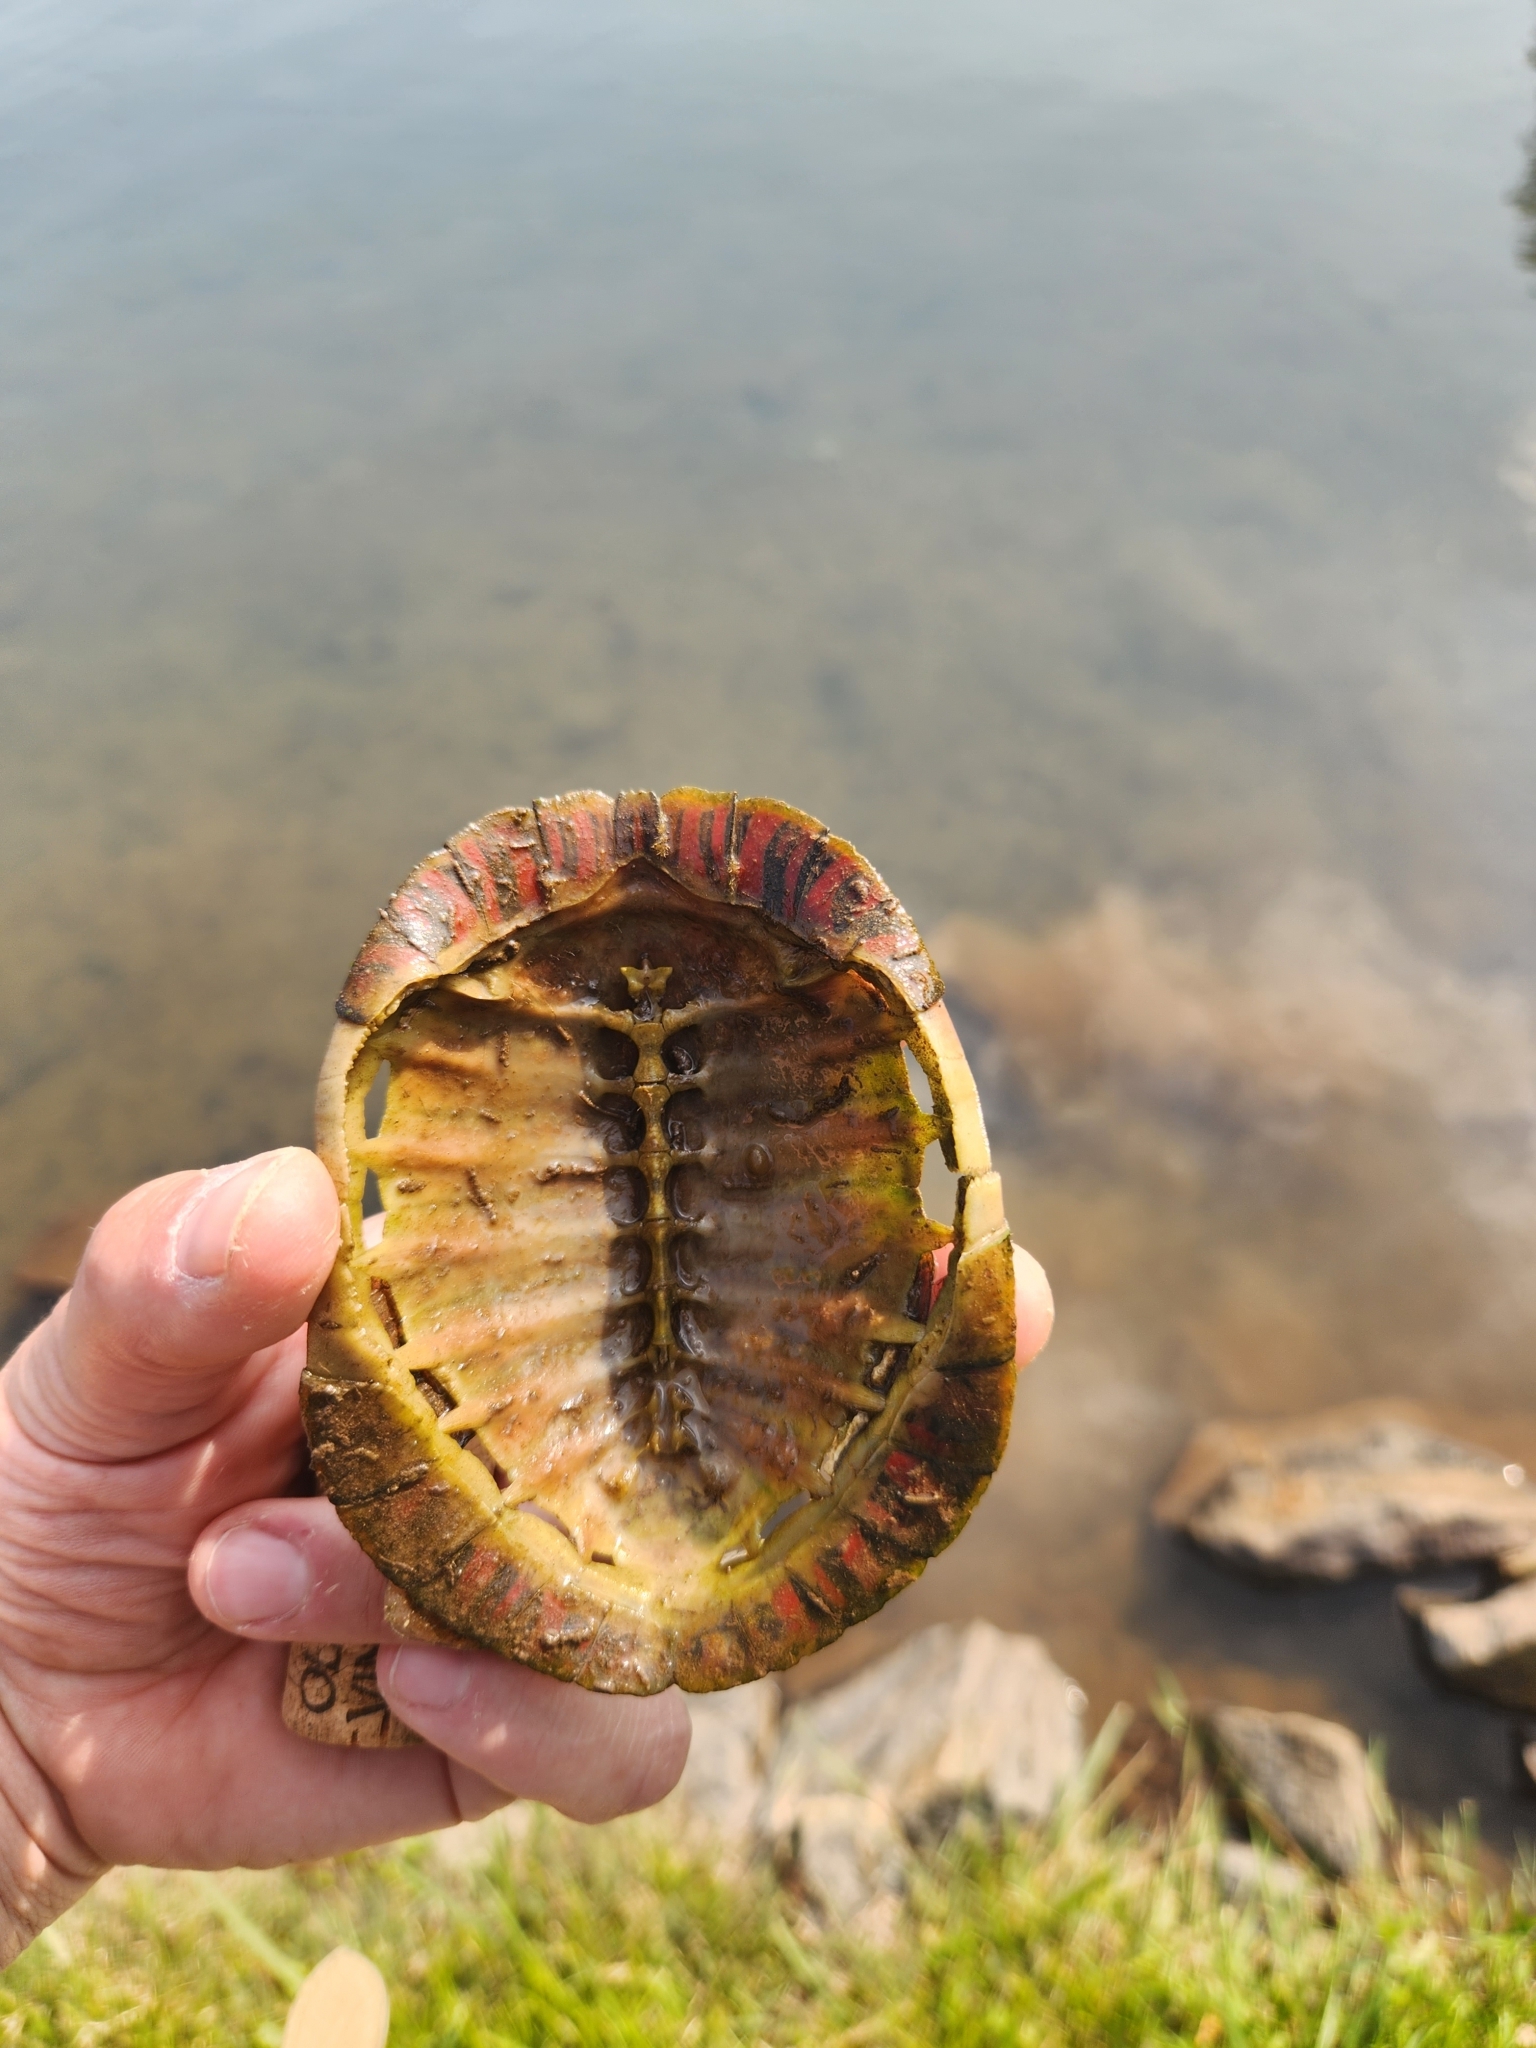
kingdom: Animalia
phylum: Chordata
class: Testudines
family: Emydidae
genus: Chrysemys
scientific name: Chrysemys picta
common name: Painted turtle
